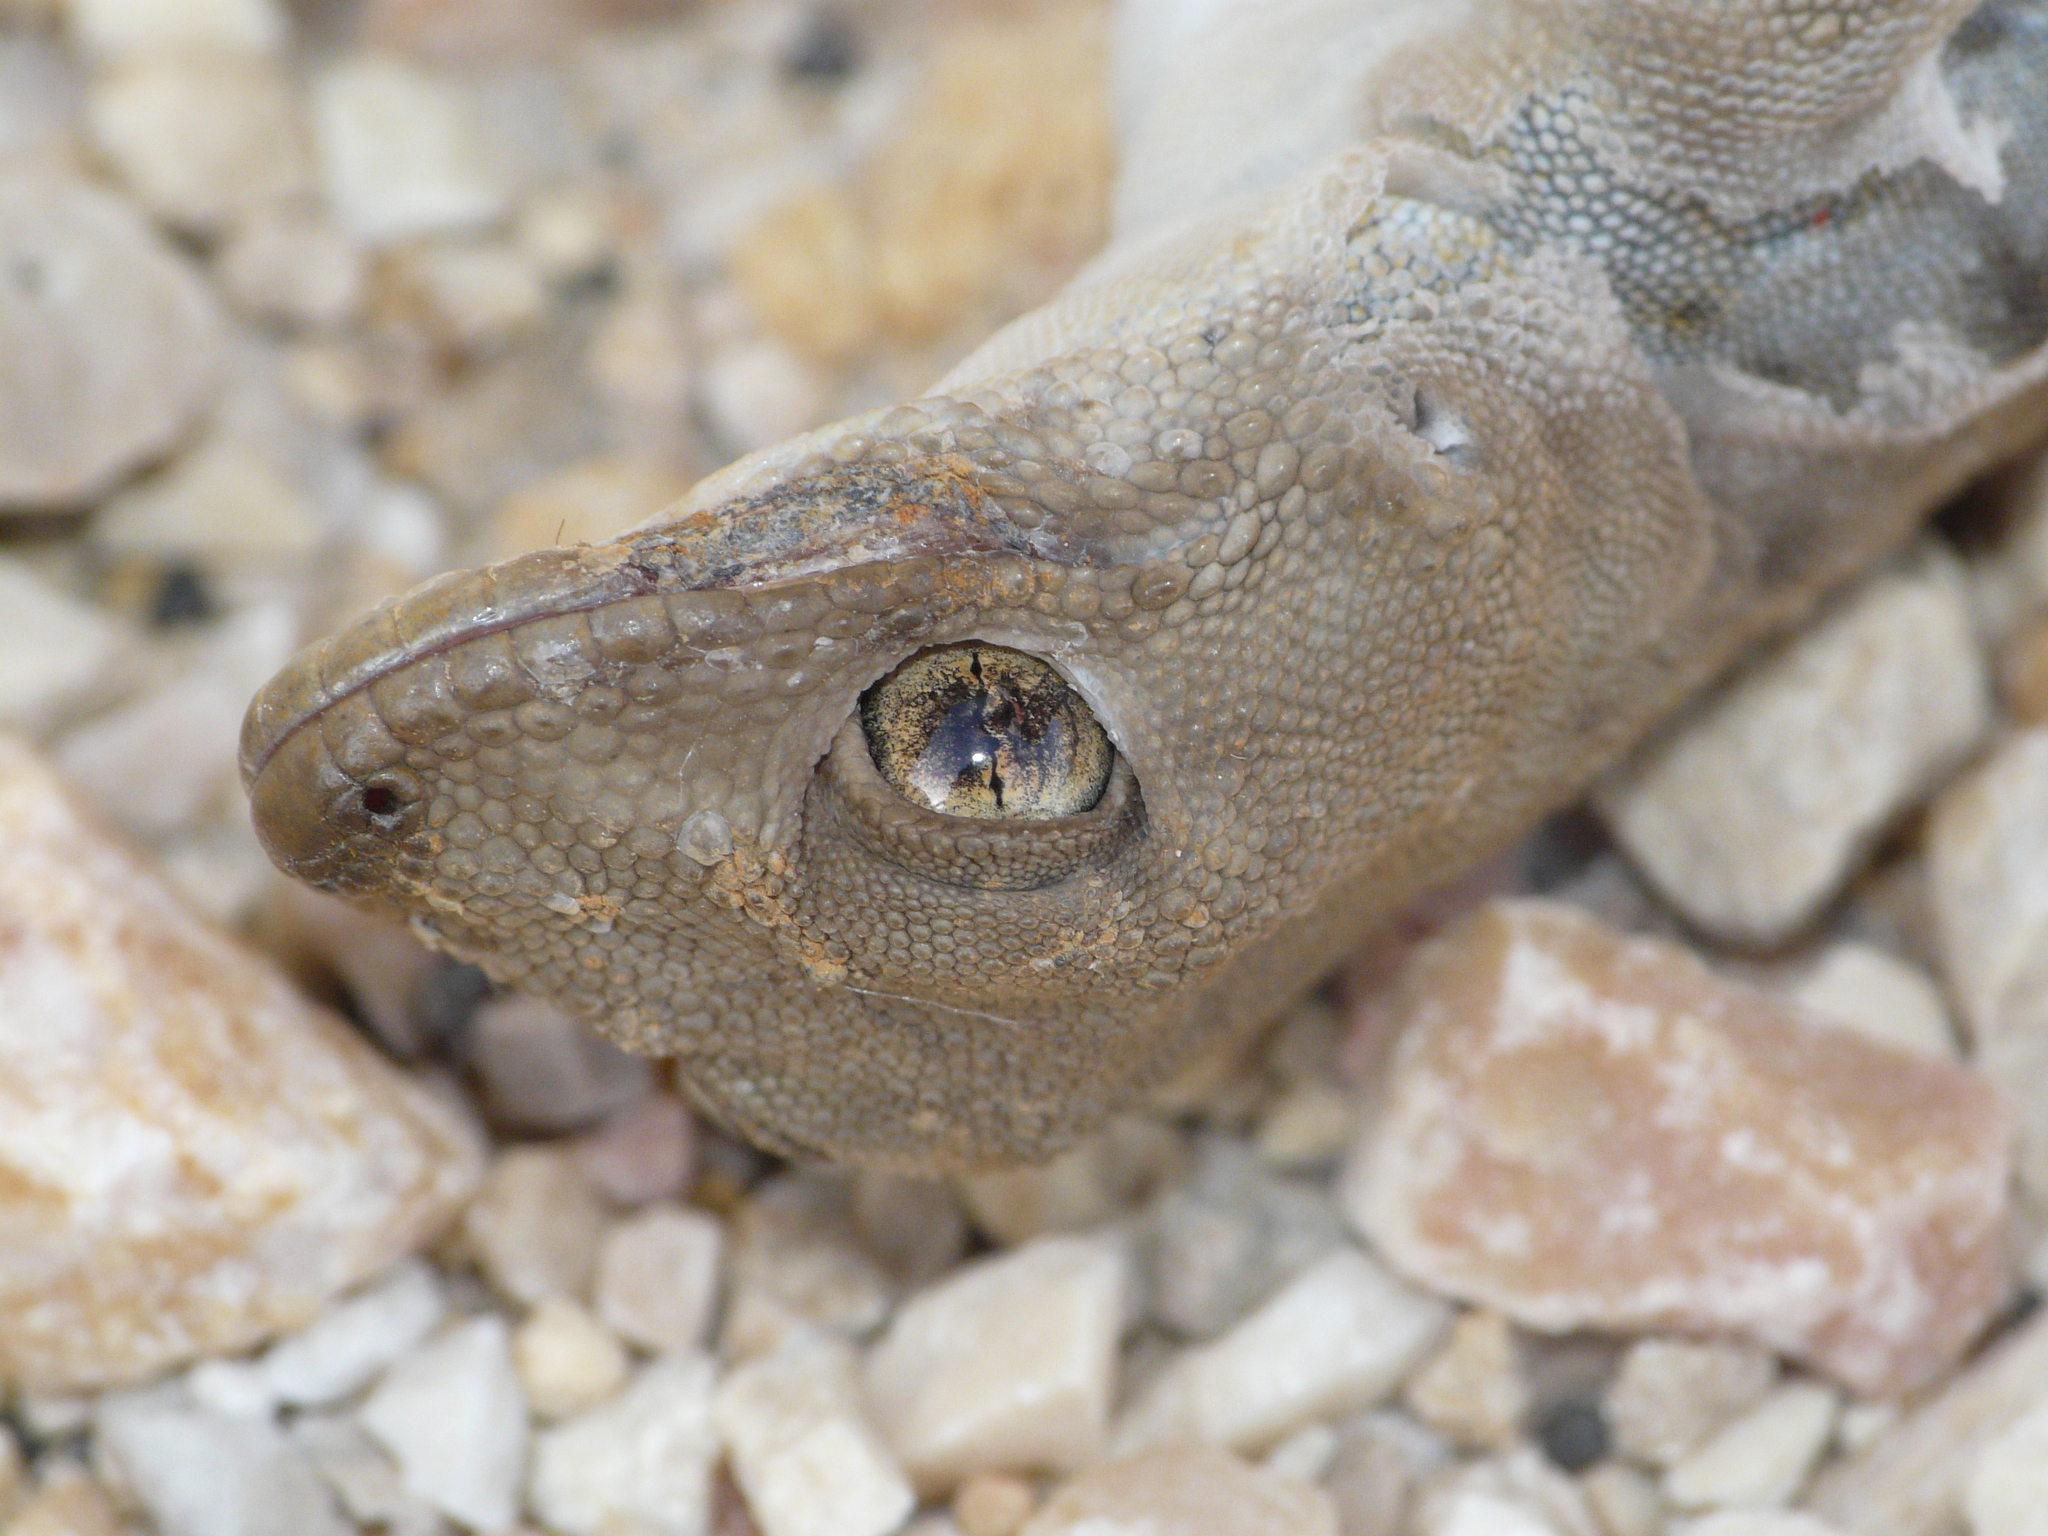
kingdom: Animalia
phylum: Chordata
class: Squamata
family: Phyllodactylidae
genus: Ptyodactylus
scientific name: Ptyodactylus puiseuxi
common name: Israeli fan-fingered gecko
